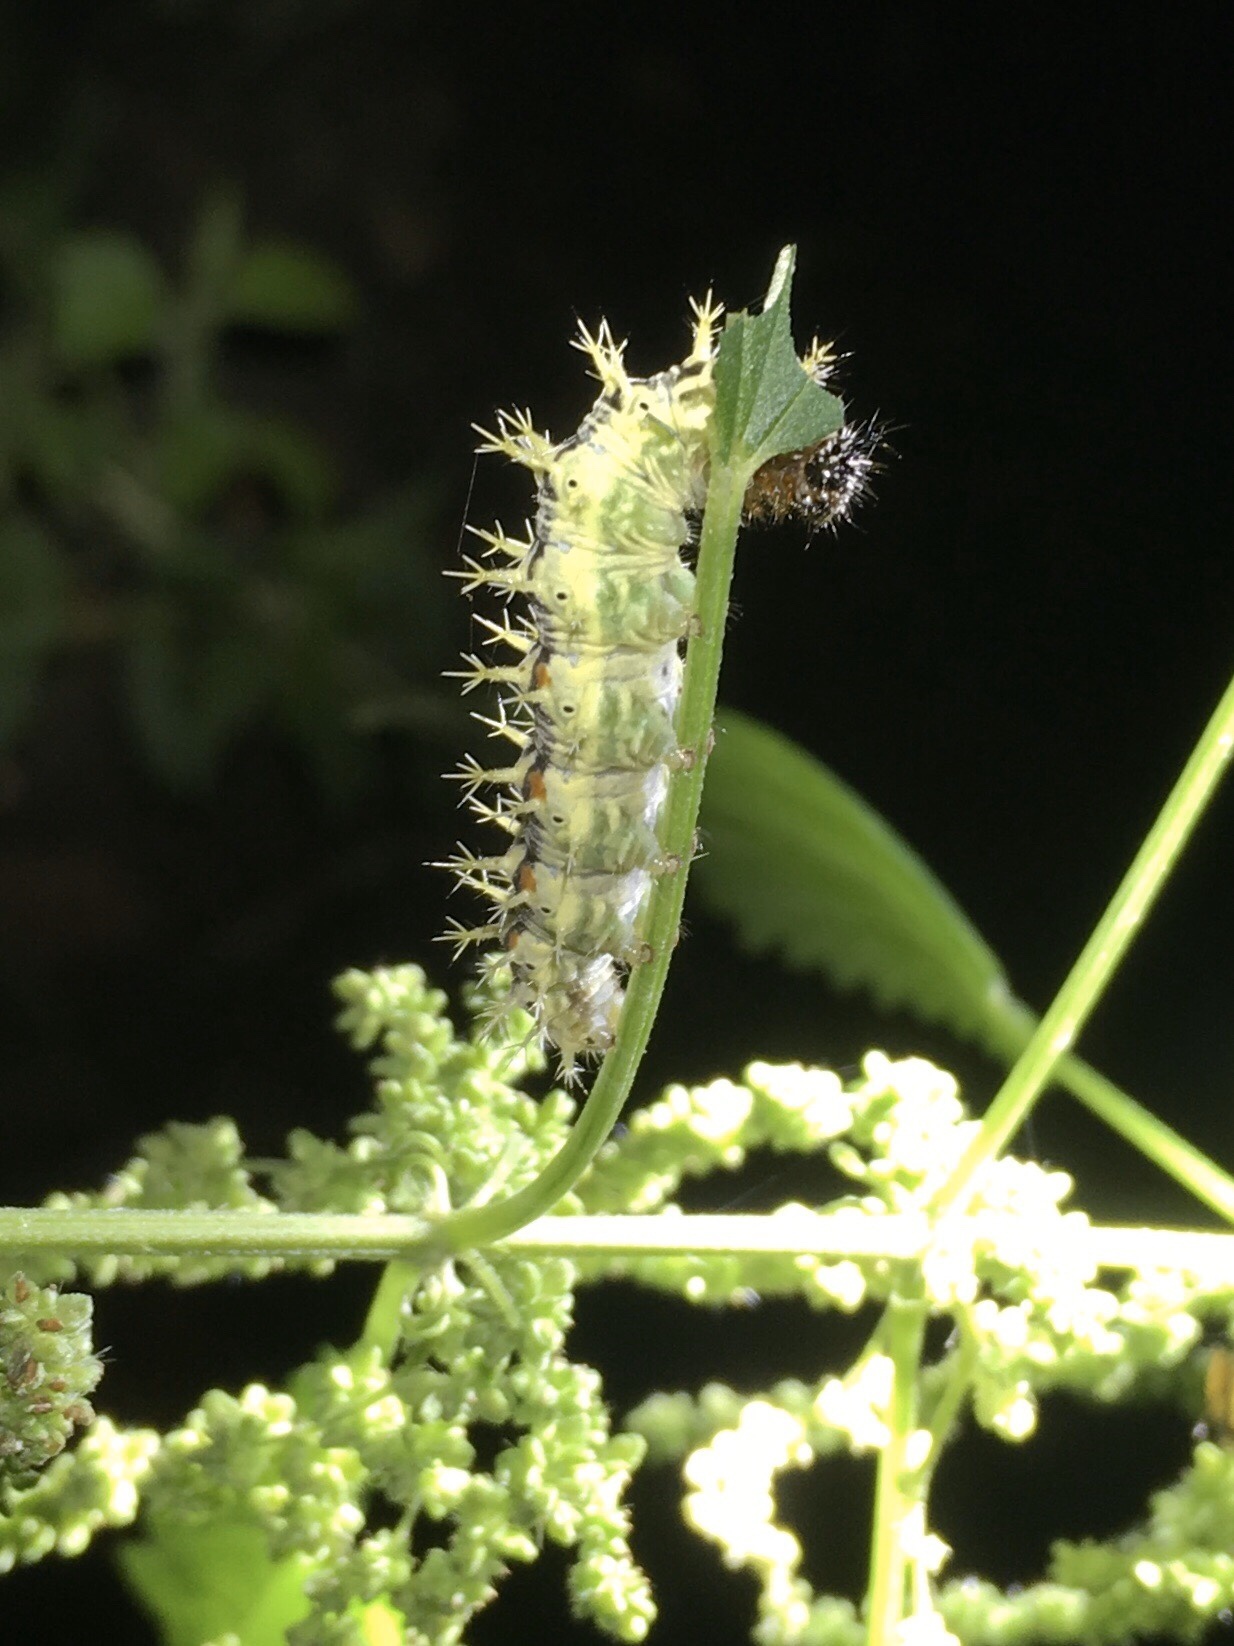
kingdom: Animalia
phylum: Arthropoda
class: Insecta
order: Lepidoptera
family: Nymphalidae
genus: Polygonia
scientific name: Polygonia comma
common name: Eastern comma
